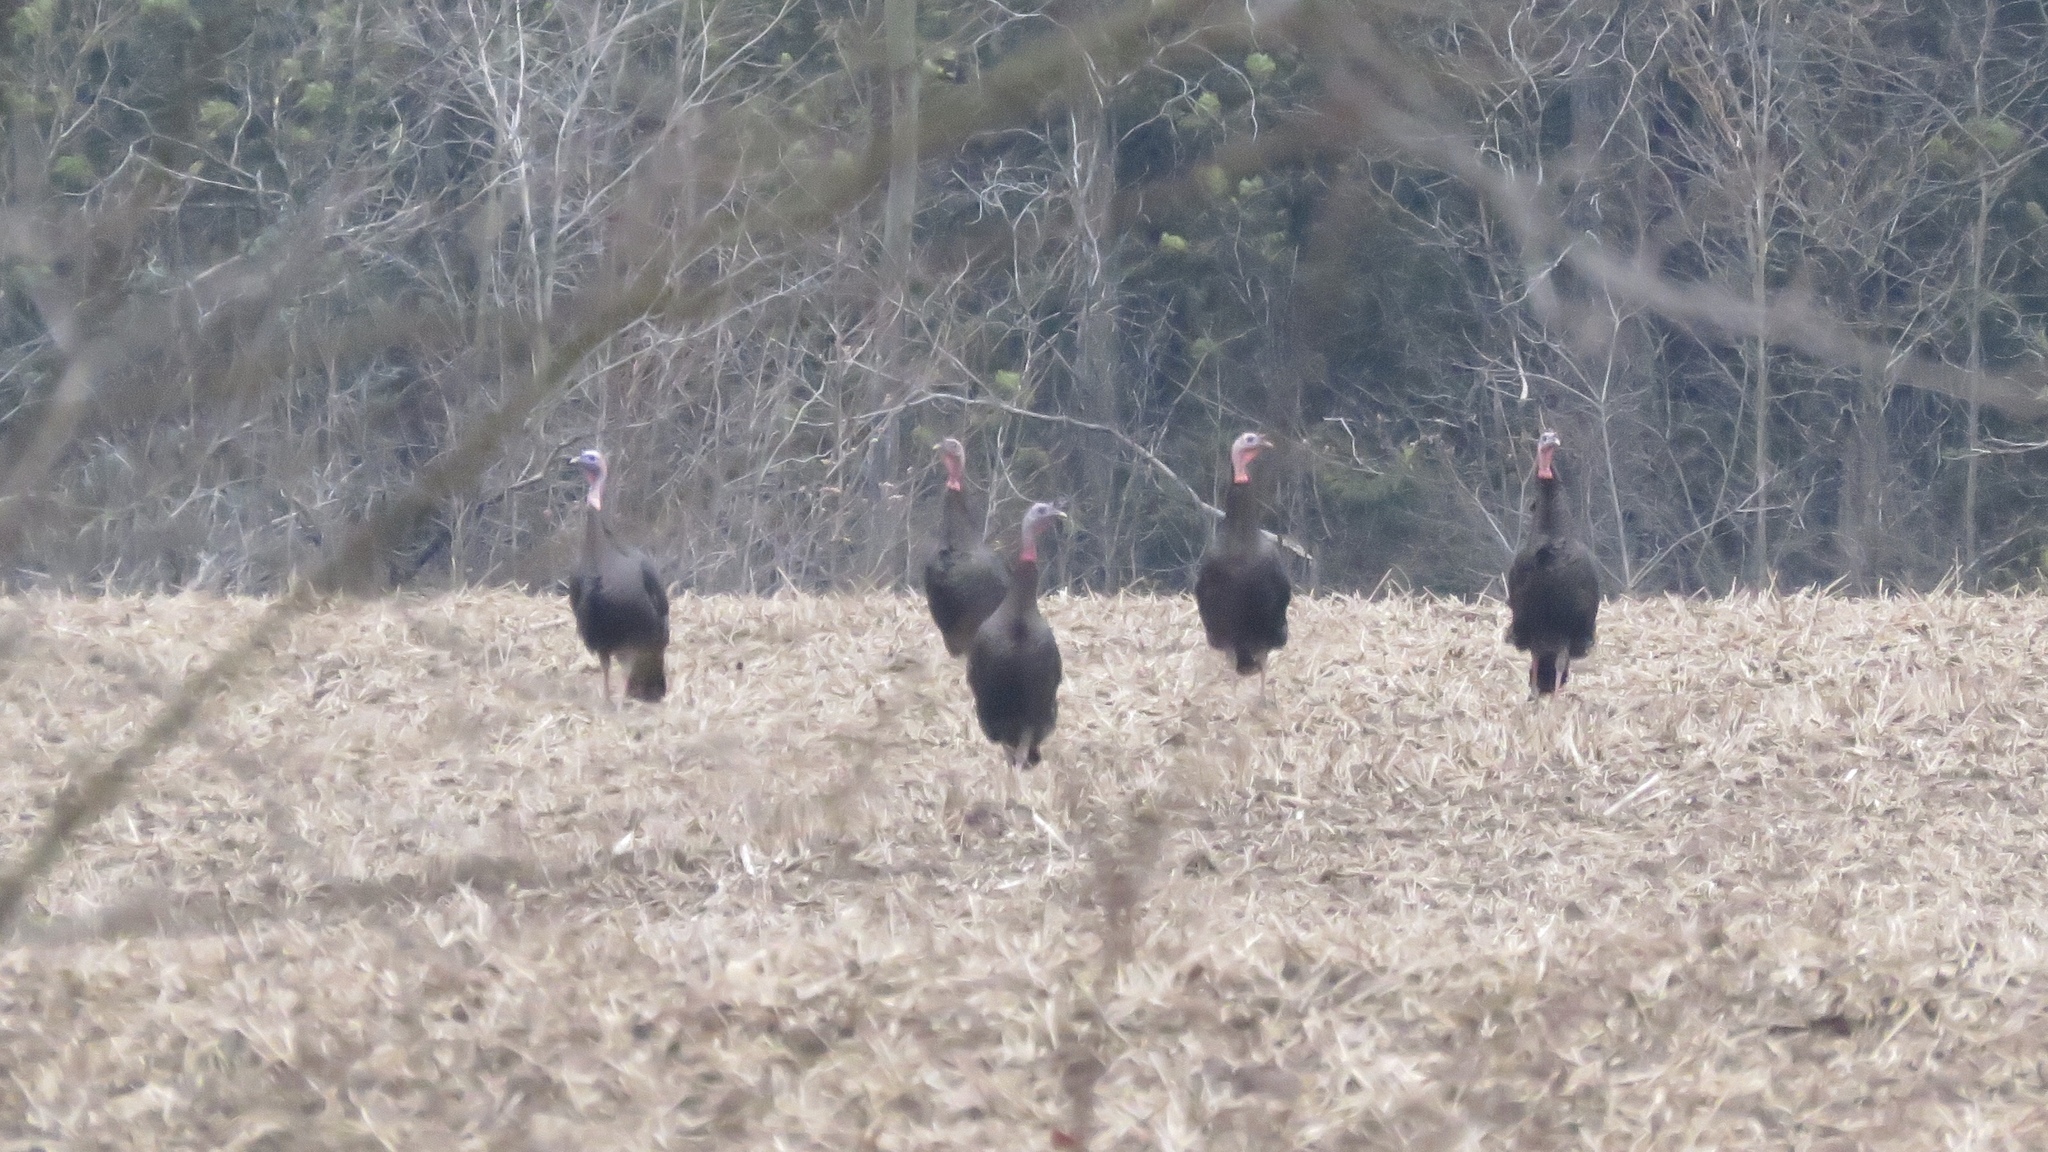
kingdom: Animalia
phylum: Chordata
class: Aves
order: Galliformes
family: Phasianidae
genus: Meleagris
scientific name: Meleagris gallopavo
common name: Wild turkey
